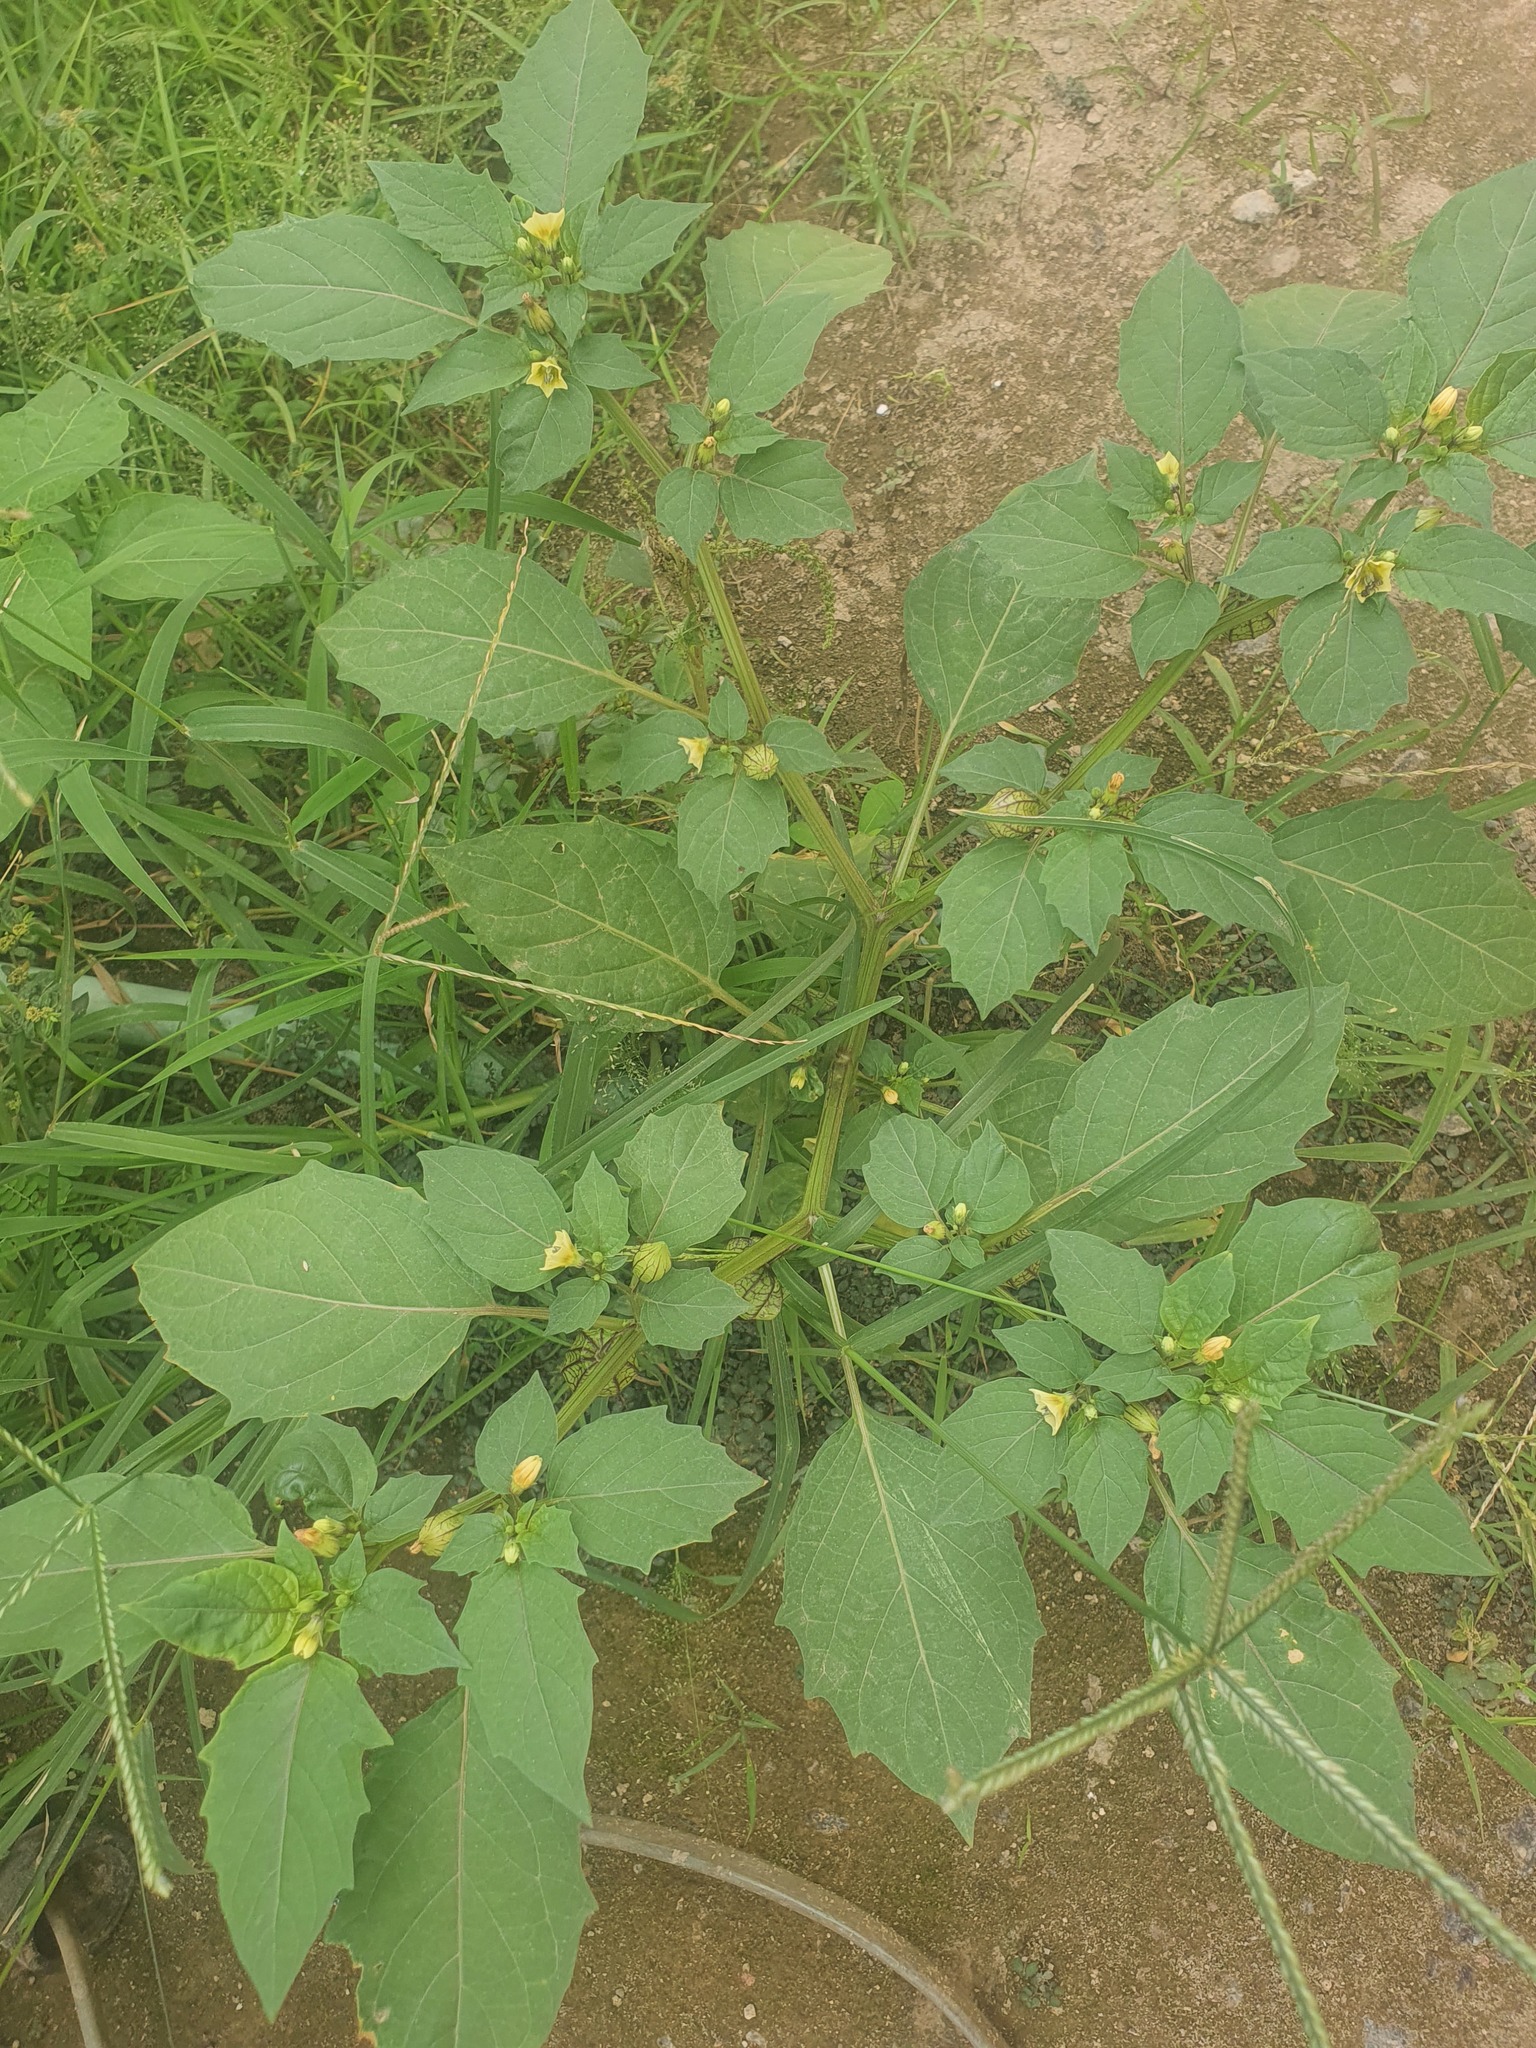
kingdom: Plantae
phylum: Tracheophyta
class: Magnoliopsida
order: Solanales
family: Solanaceae
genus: Physalis
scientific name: Physalis angulata
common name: Angular winter-cherry
